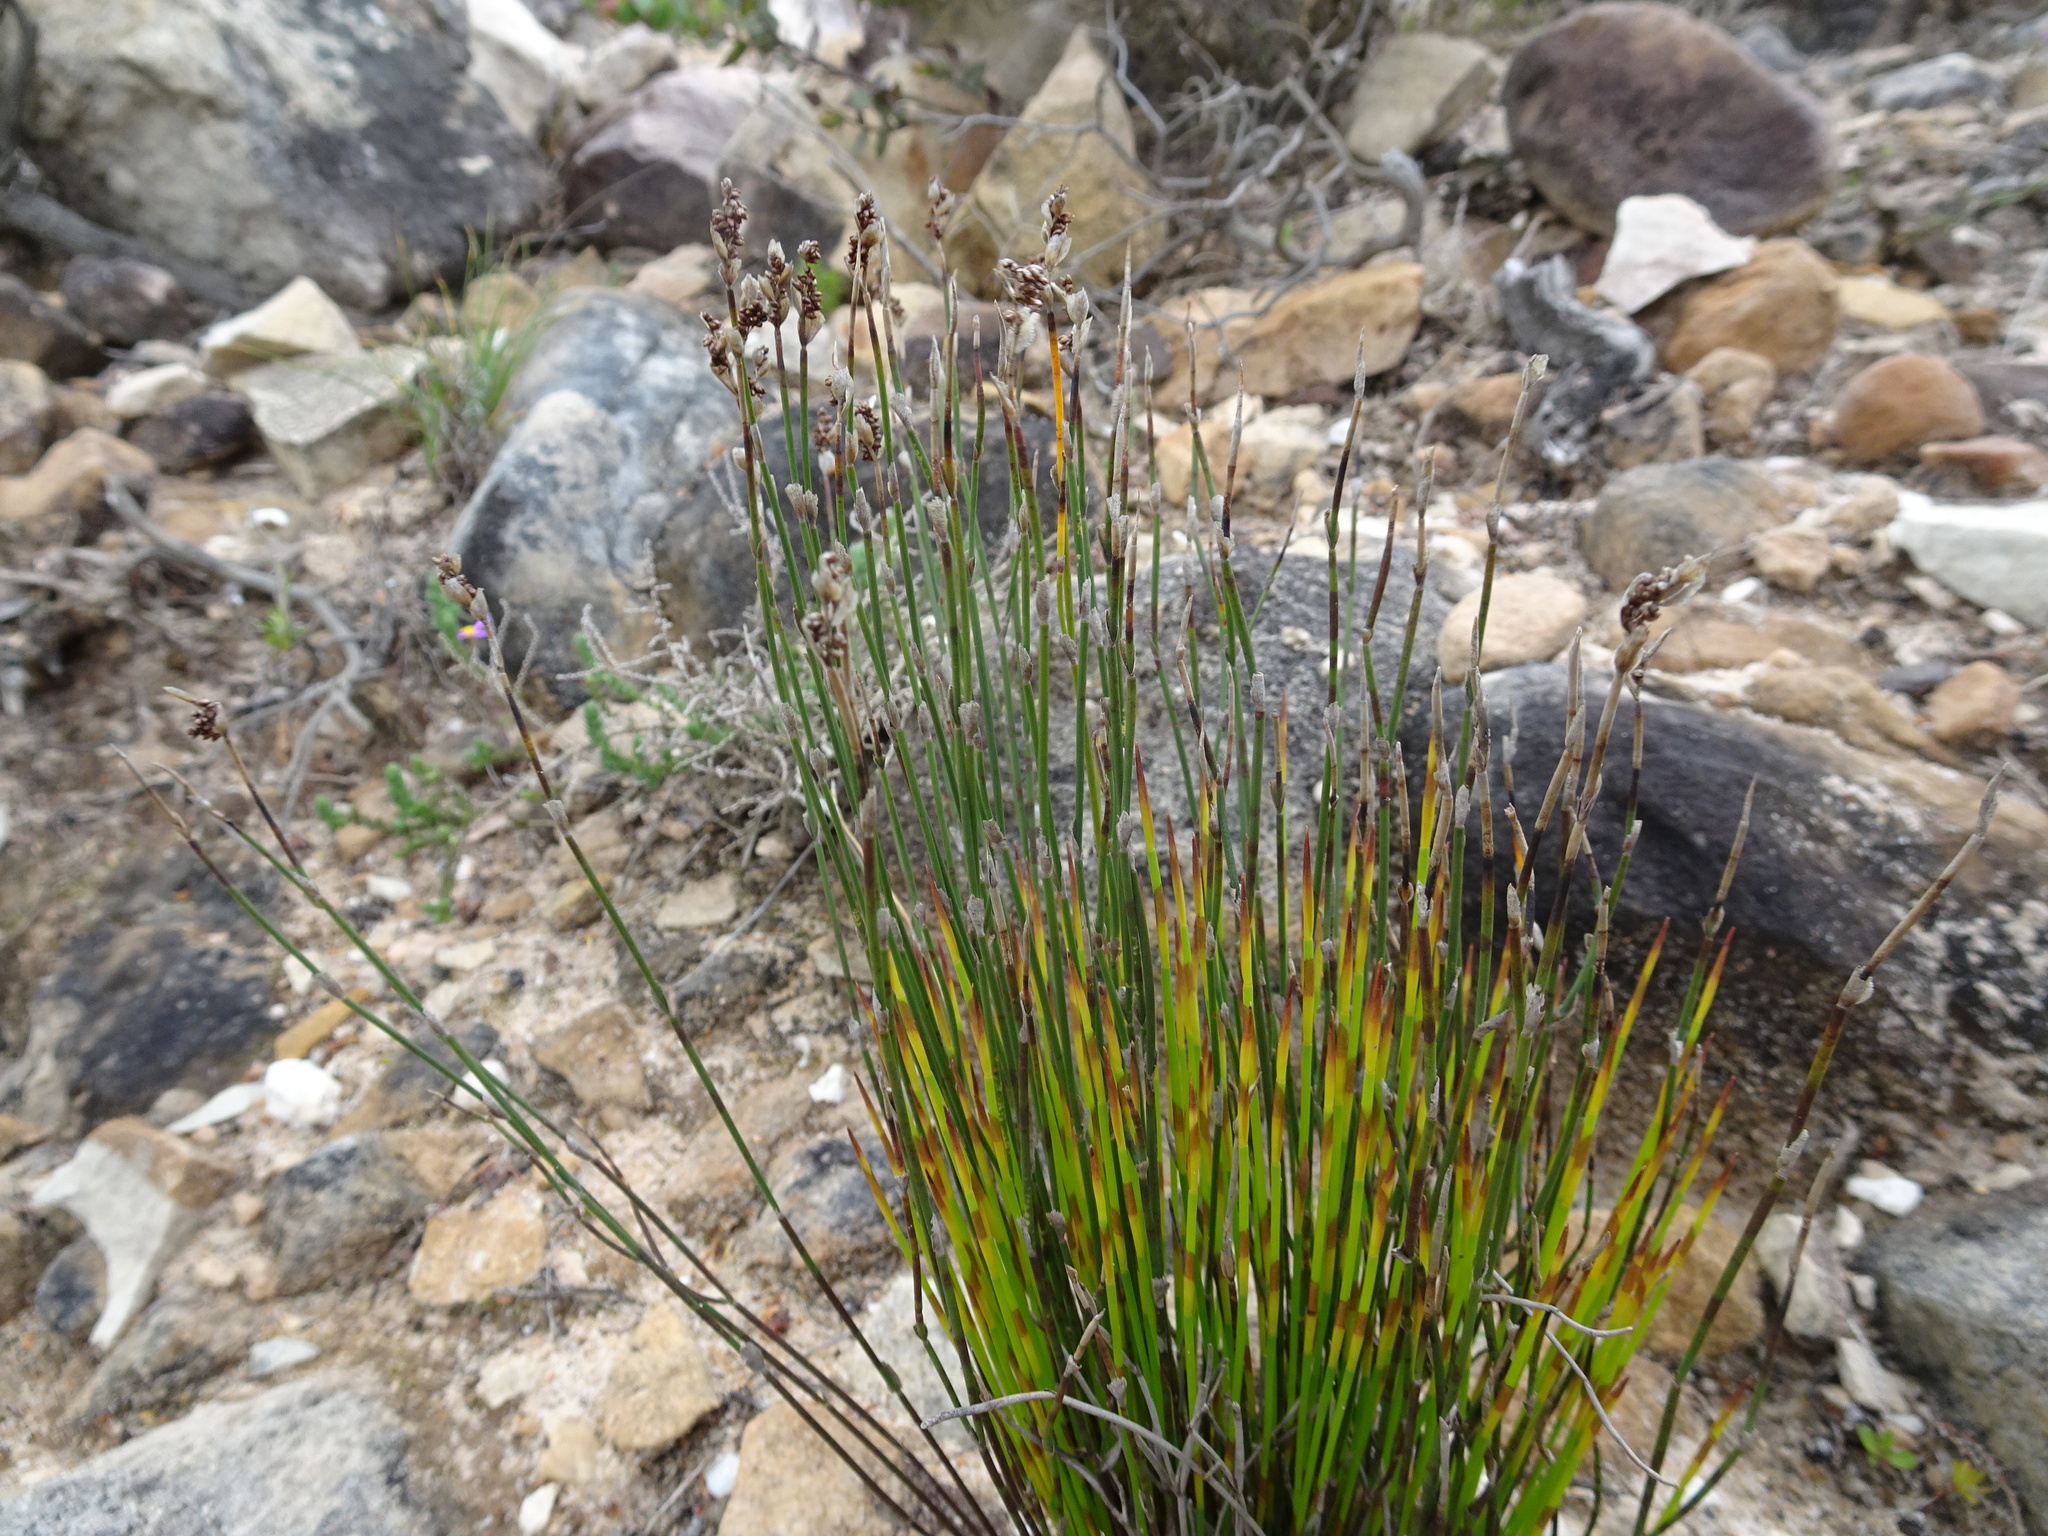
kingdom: Plantae
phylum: Tracheophyta
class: Liliopsida
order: Poales
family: Restionaceae
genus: Elegia
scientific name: Elegia filacea
